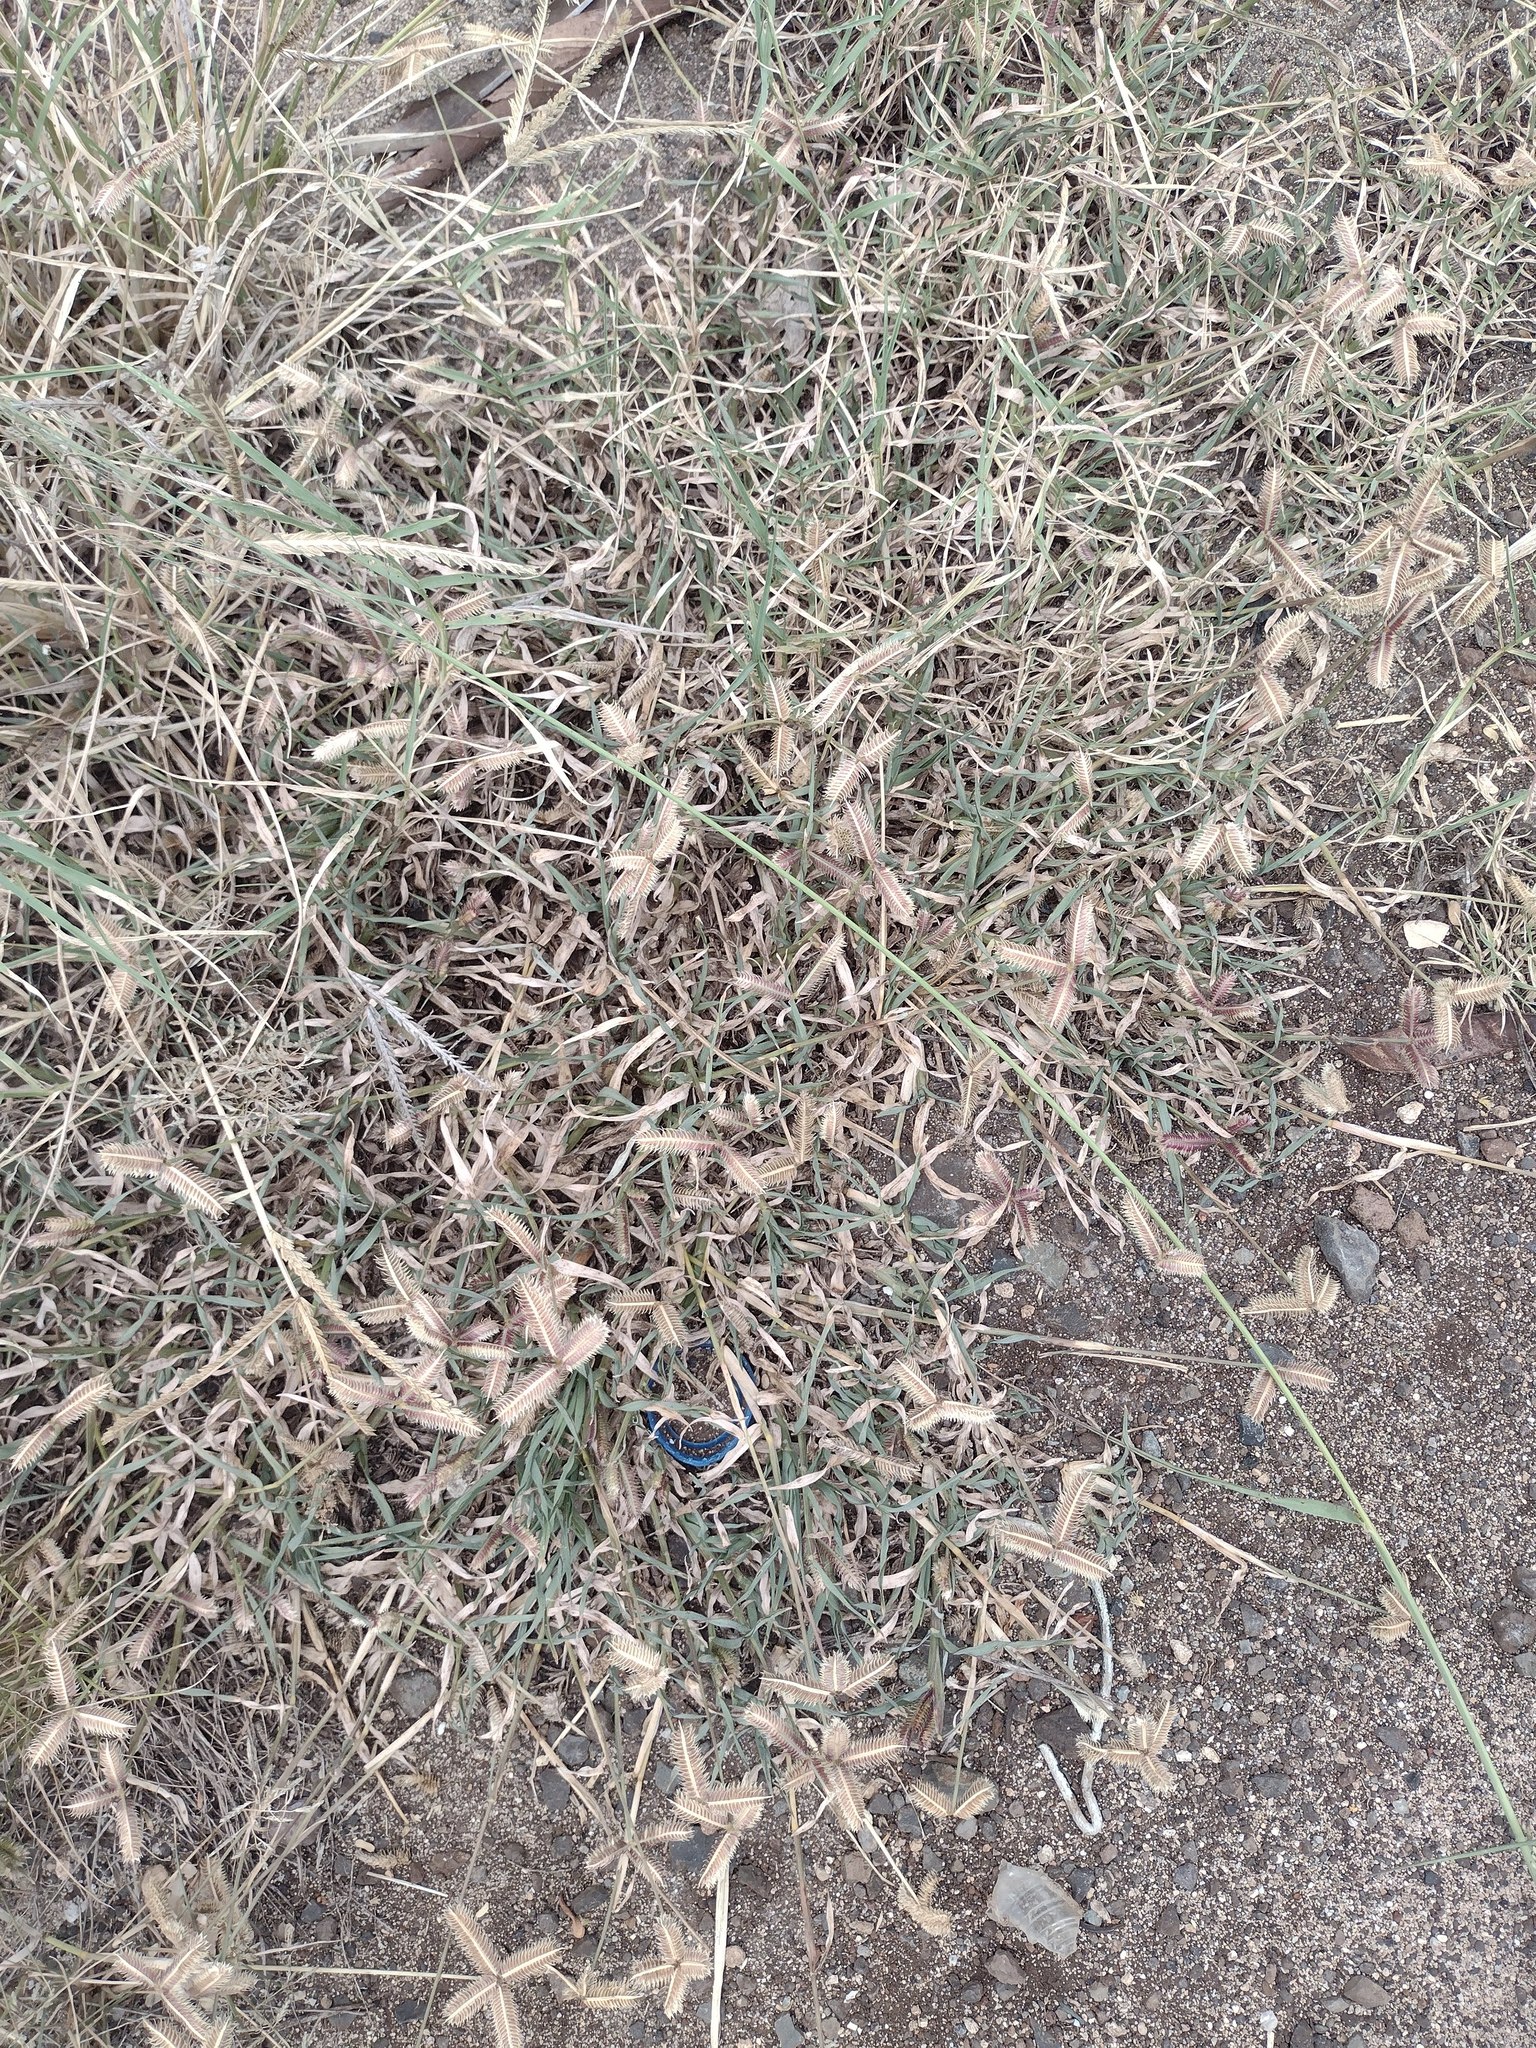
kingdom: Plantae
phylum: Tracheophyta
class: Liliopsida
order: Poales
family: Poaceae
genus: Dactyloctenium
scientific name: Dactyloctenium aegyptium
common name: Egyptian grass
